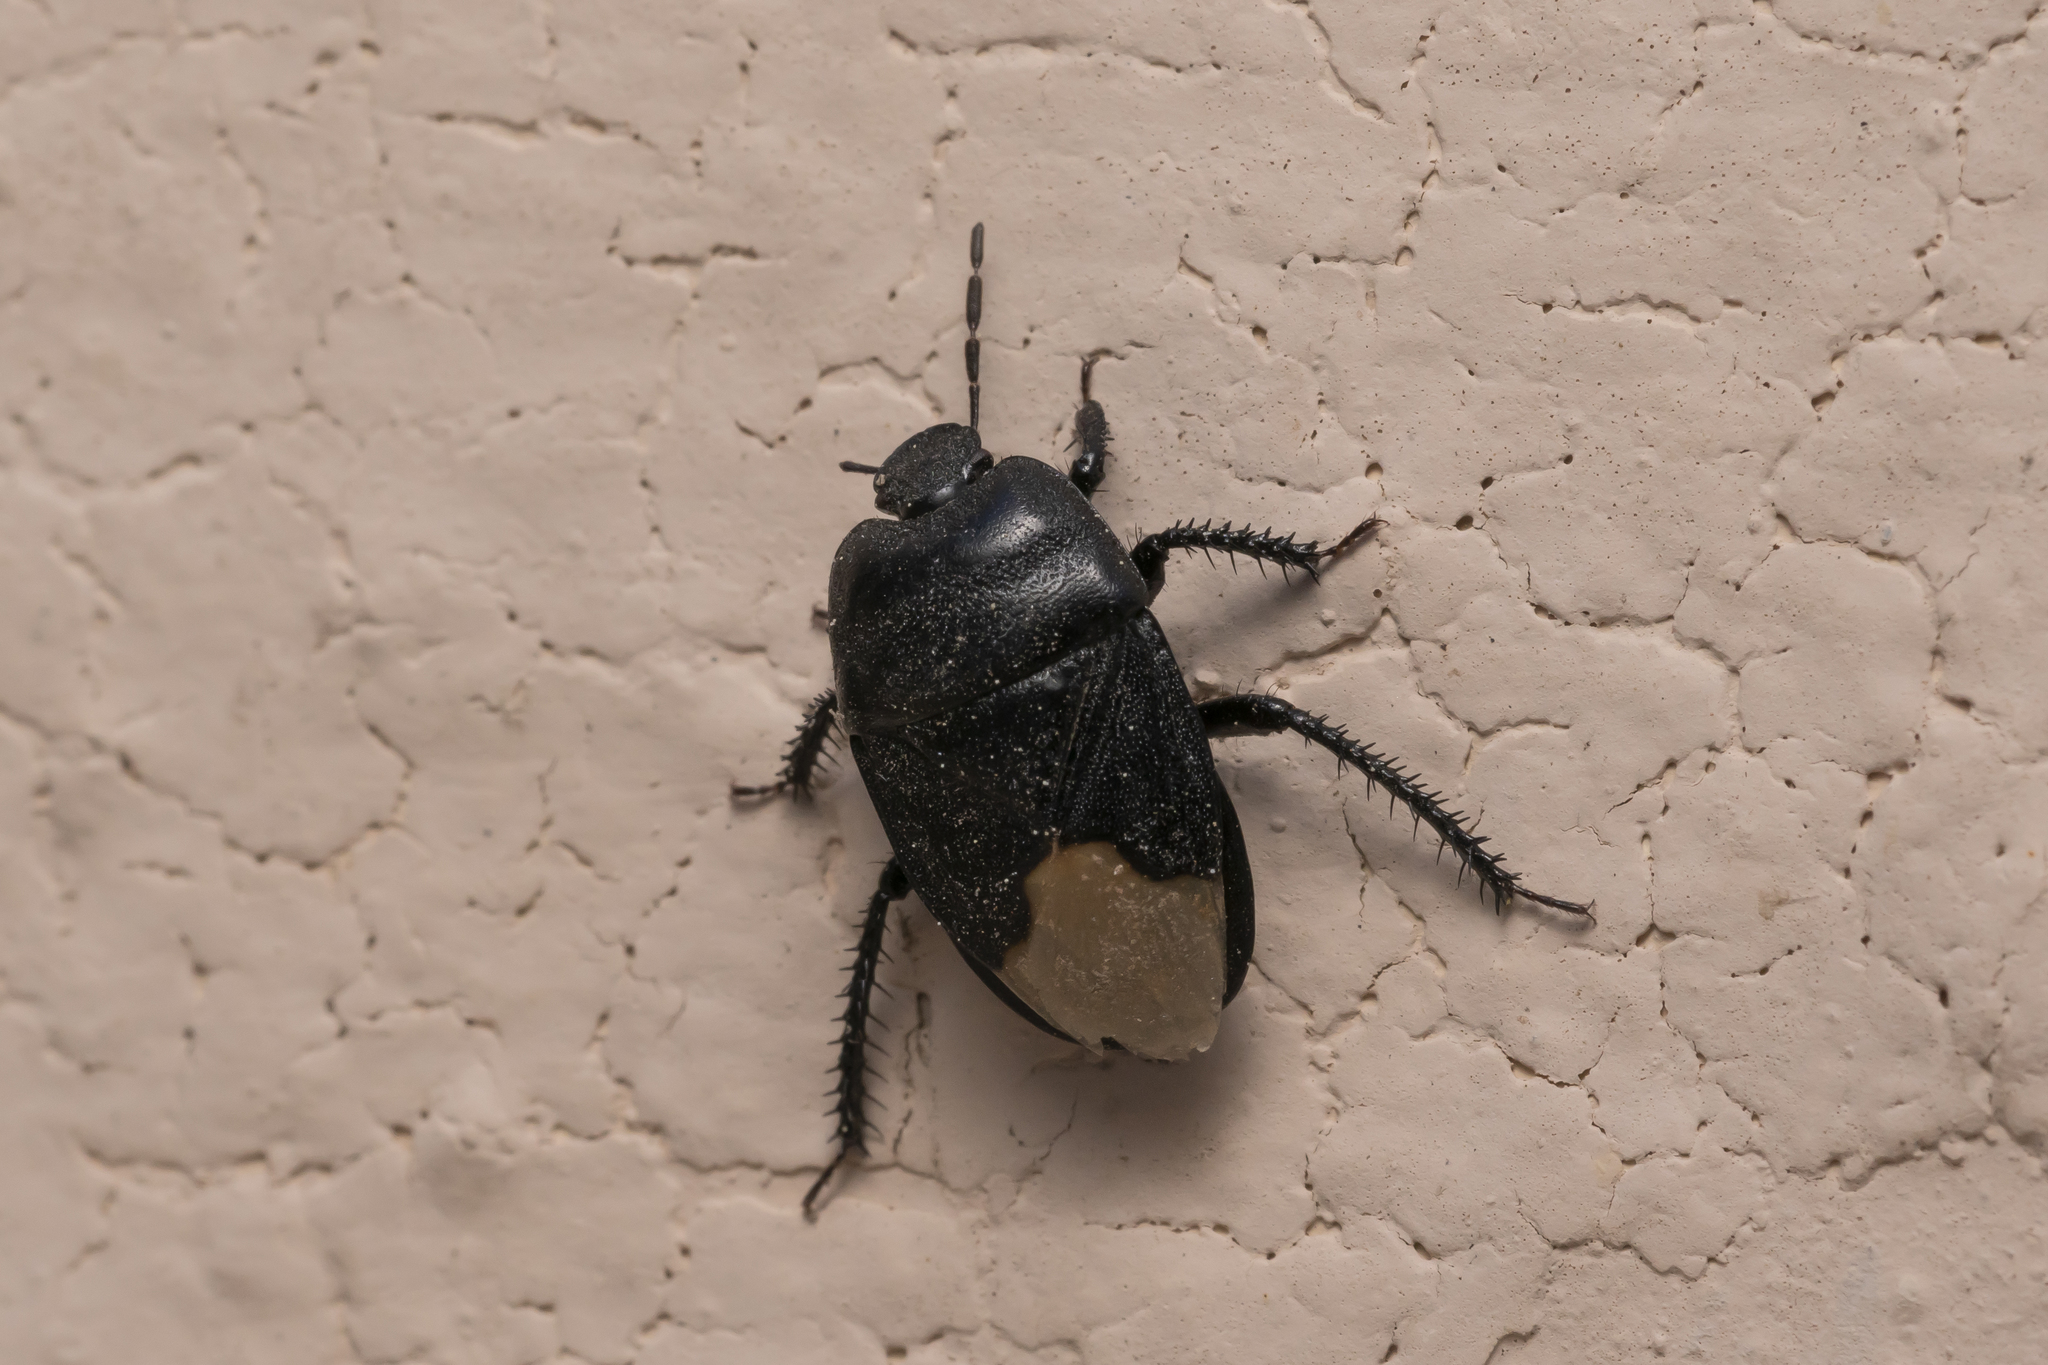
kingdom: Animalia
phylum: Arthropoda
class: Insecta
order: Hemiptera
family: Cydnidae
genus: Cydnus
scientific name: Cydnus aterrimus
